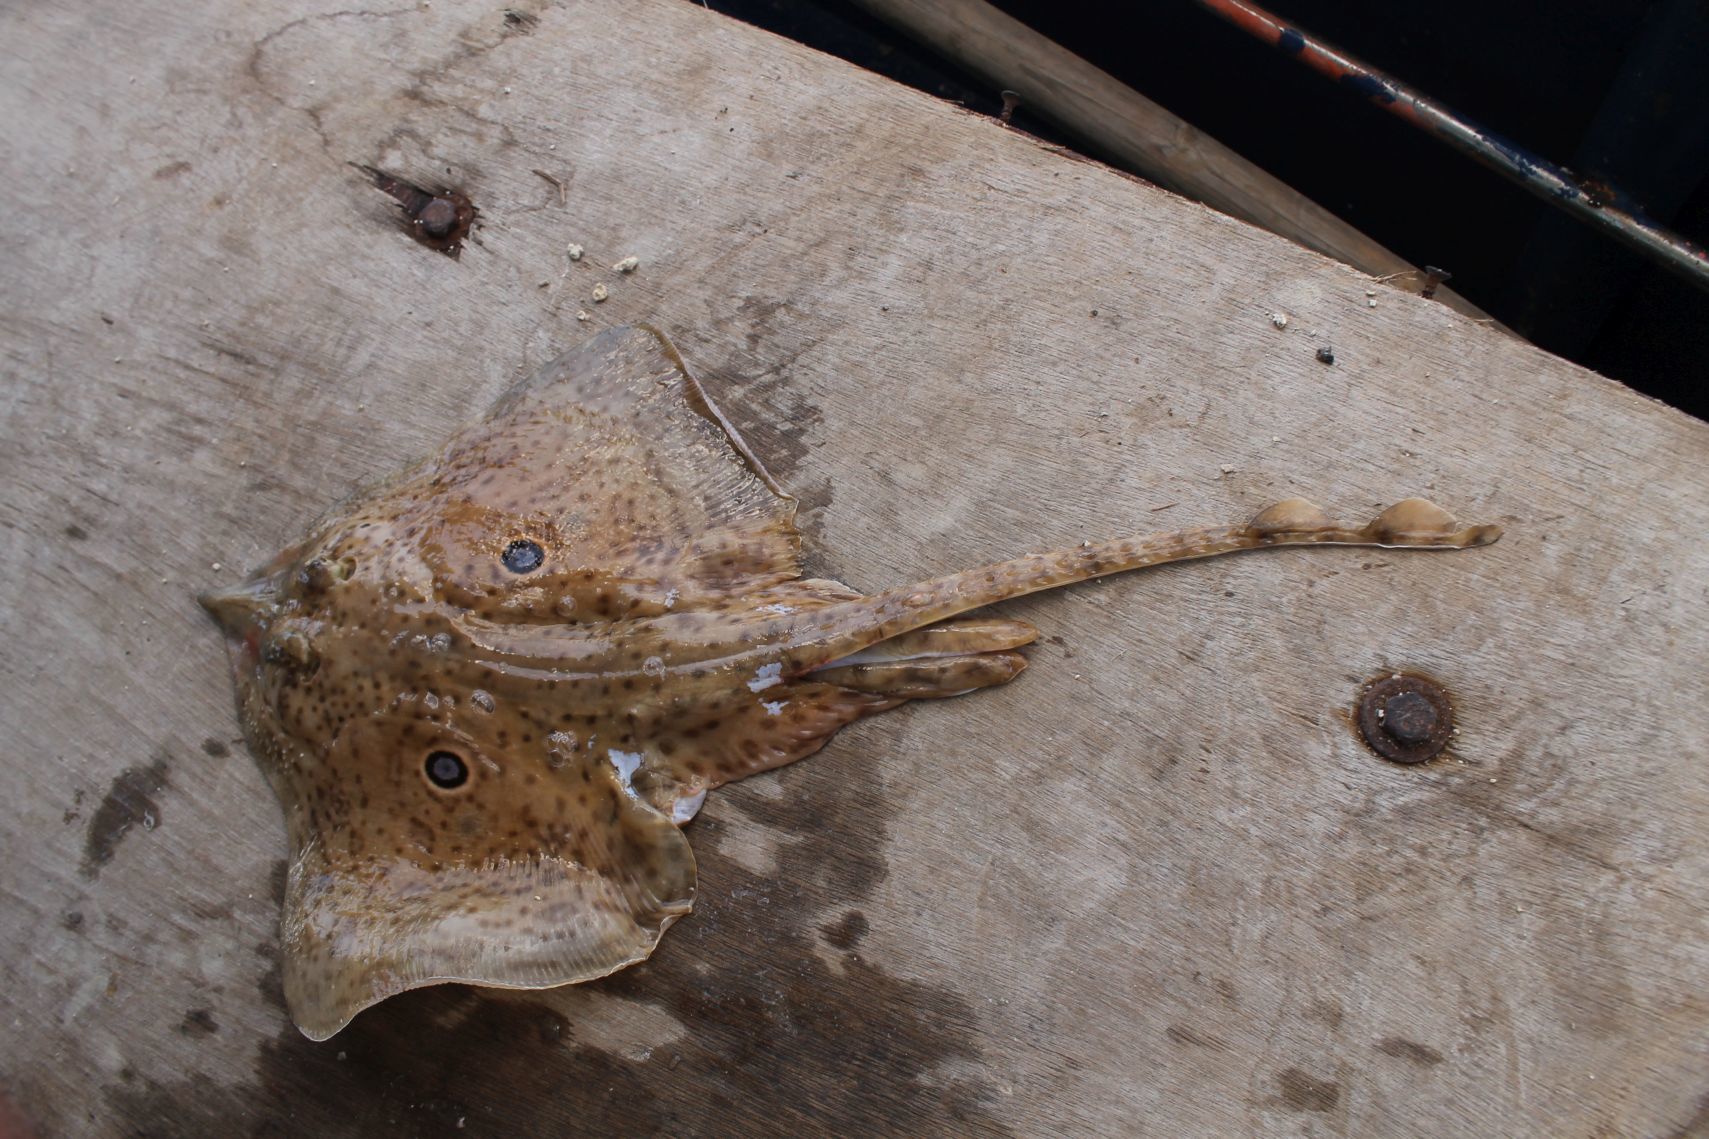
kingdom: Animalia
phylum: Chordata
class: Elasmobranchii
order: Rajiformes
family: Rajidae
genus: Raja
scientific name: Raja miraletus
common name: Brown ray
